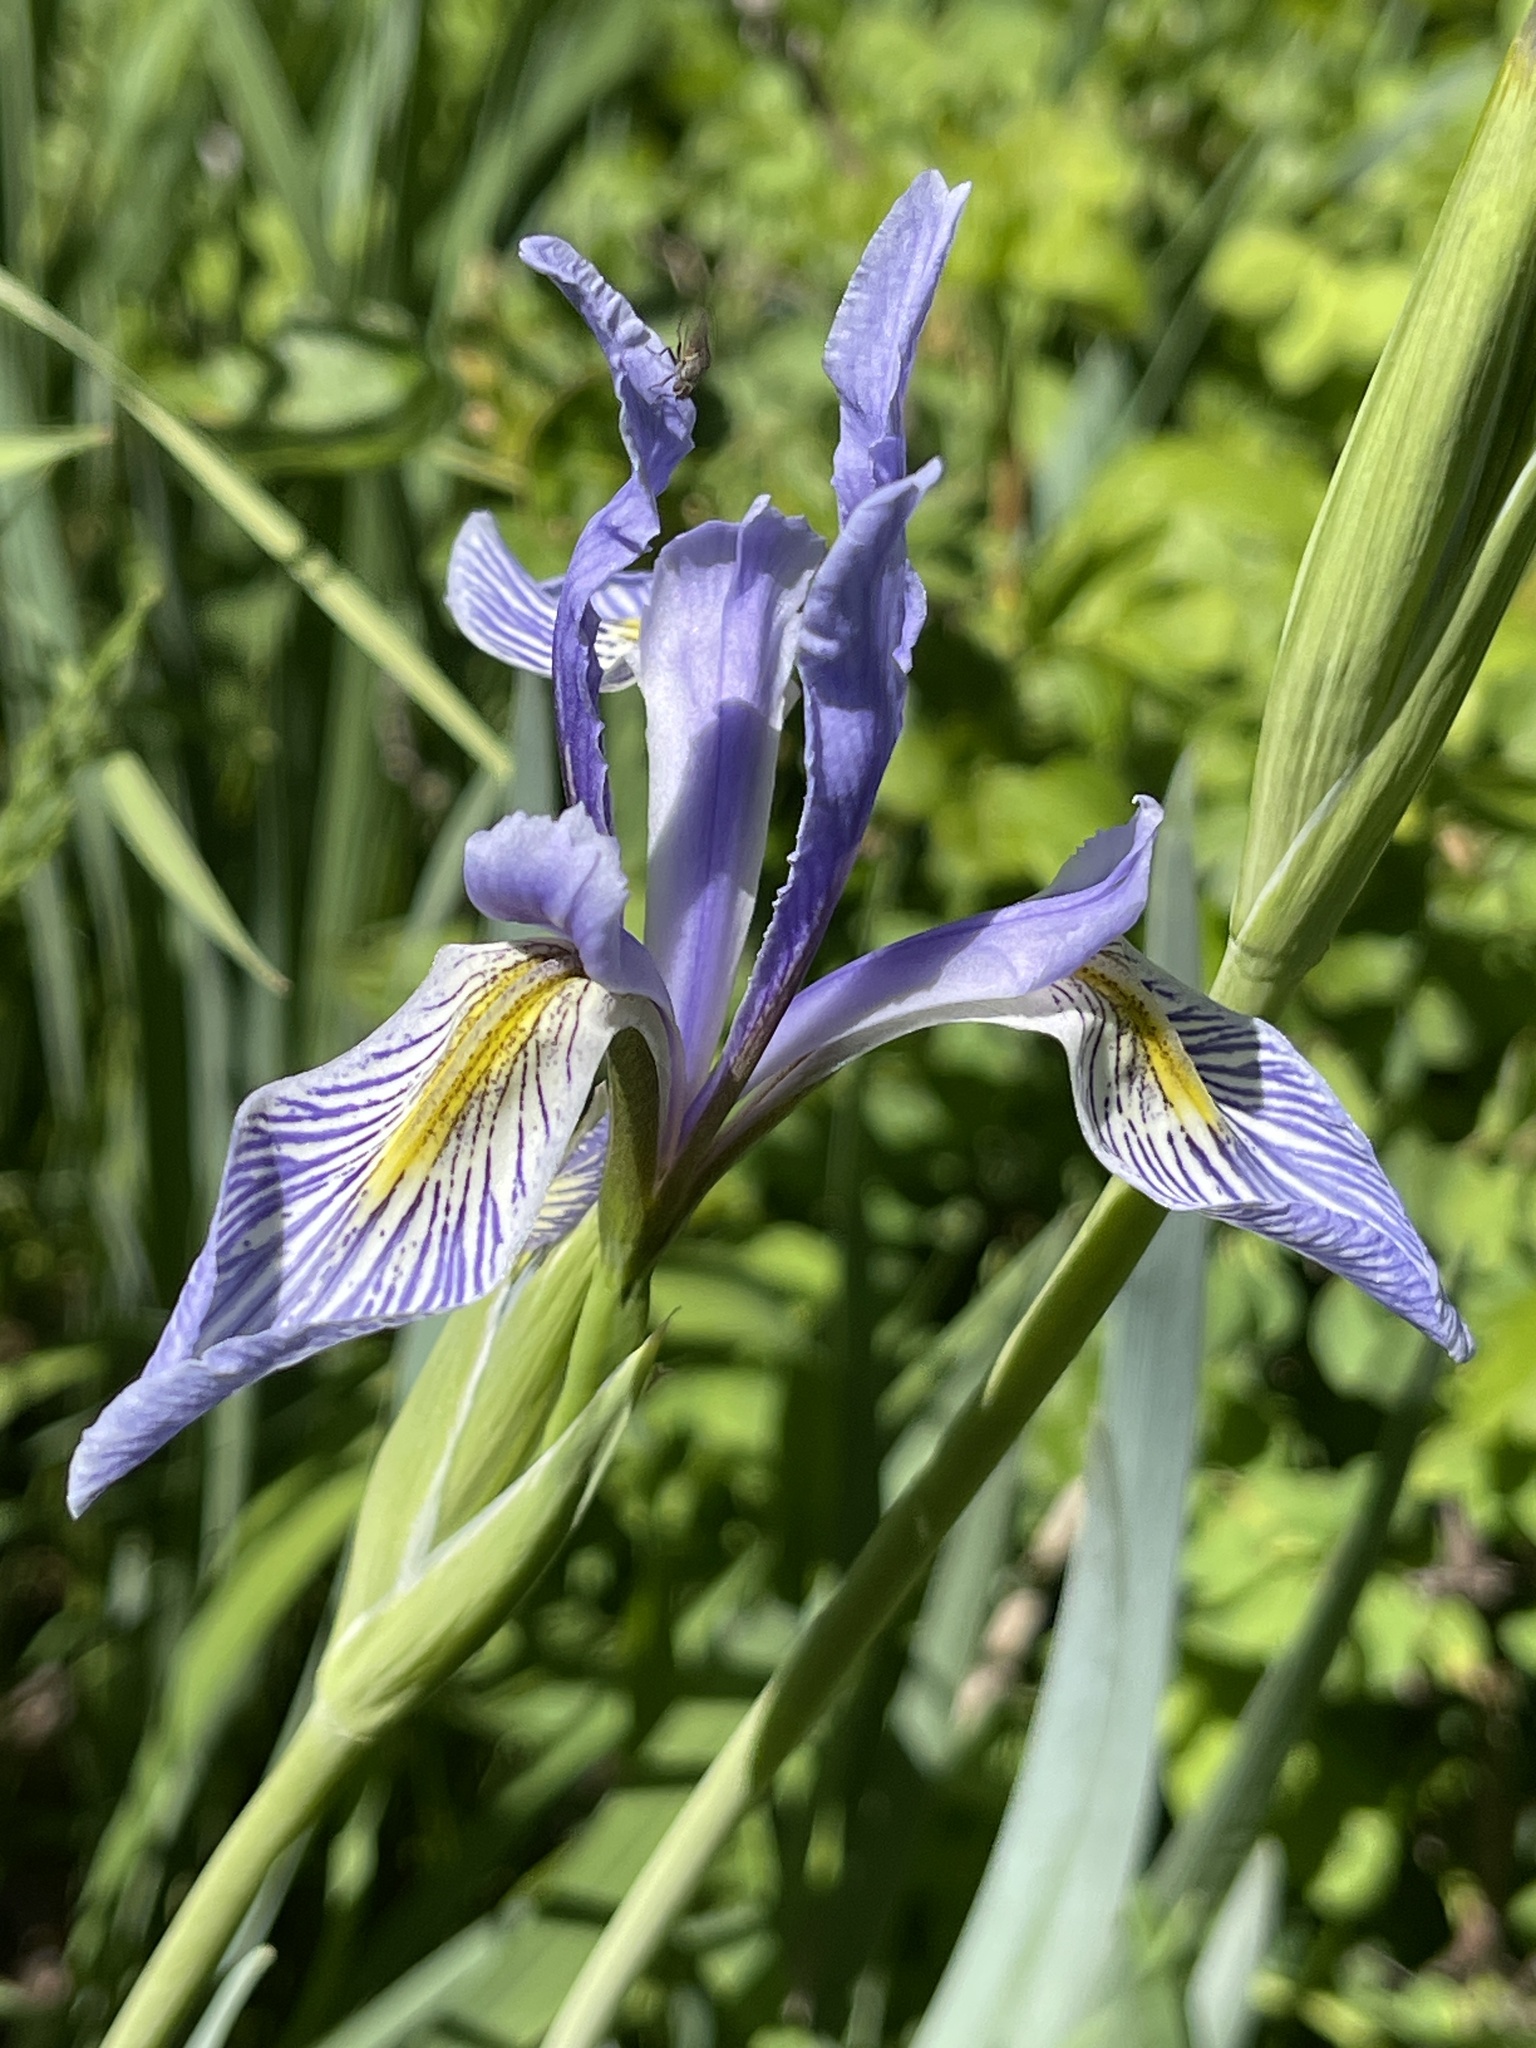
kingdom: Plantae
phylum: Tracheophyta
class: Liliopsida
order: Asparagales
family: Iridaceae
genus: Iris
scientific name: Iris missouriensis
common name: Rocky mountain iris
